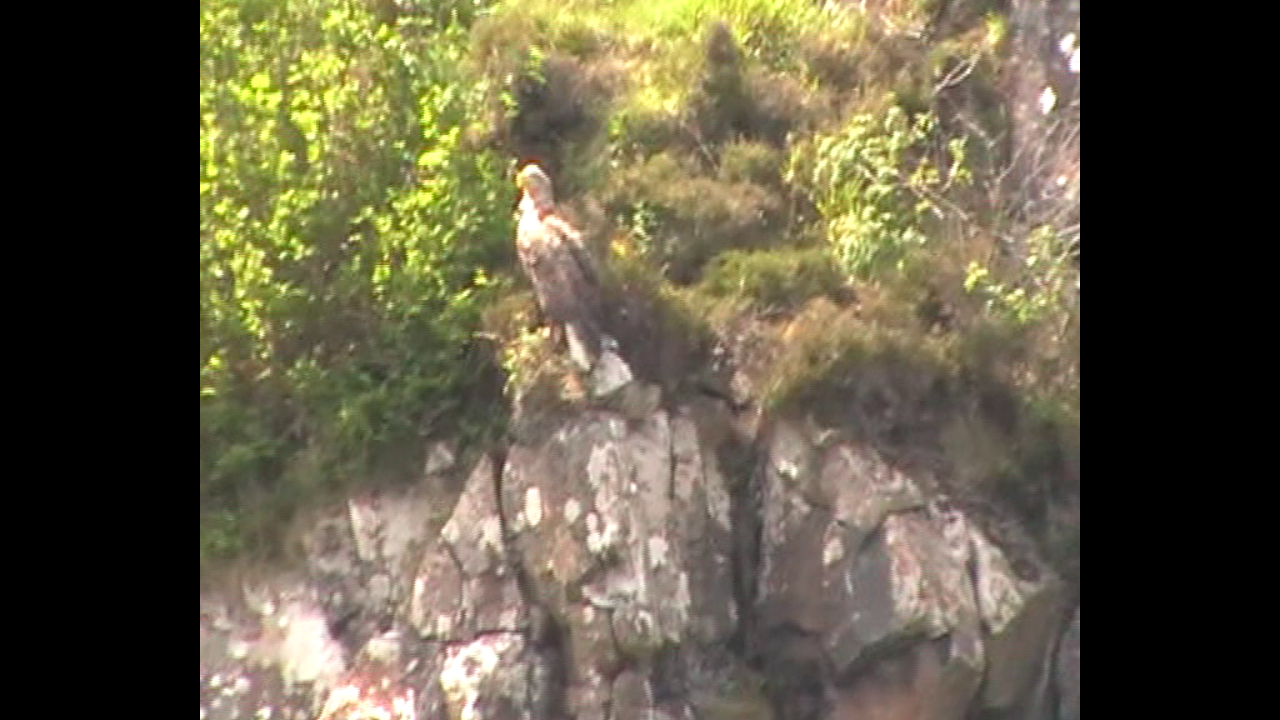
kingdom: Animalia
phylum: Chordata
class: Aves
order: Accipitriformes
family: Accipitridae
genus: Haliaeetus
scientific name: Haliaeetus albicilla
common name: White-tailed eagle
